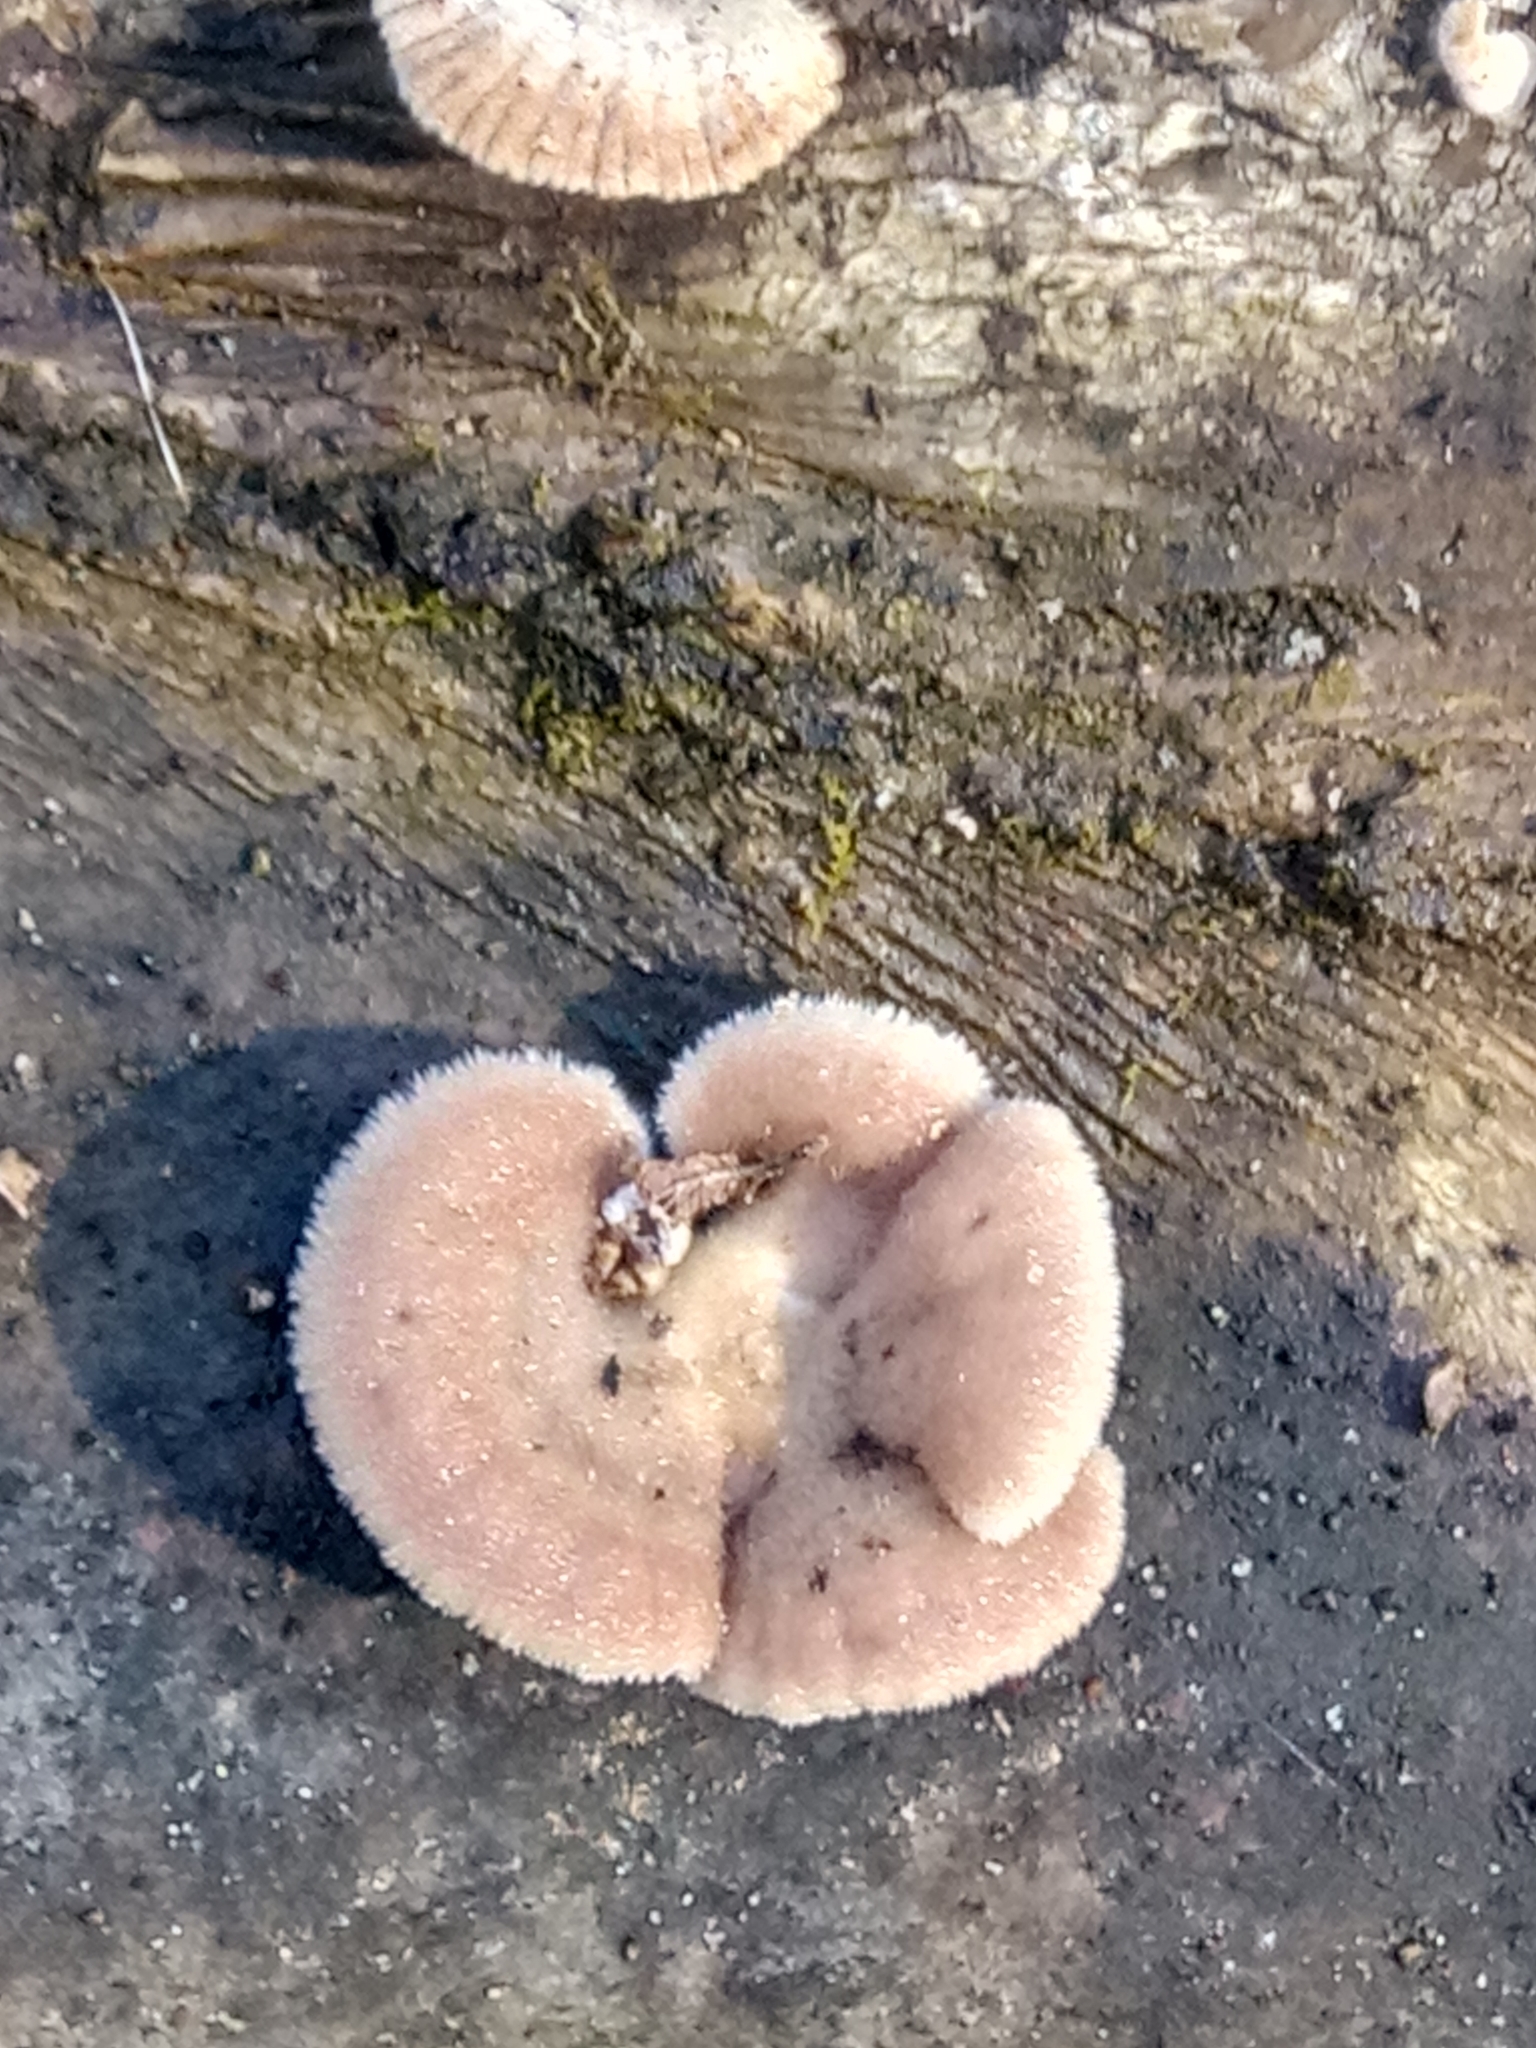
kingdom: Fungi
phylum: Basidiomycota
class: Agaricomycetes
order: Agaricales
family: Schizophyllaceae
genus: Schizophyllum
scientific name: Schizophyllum commune
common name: Common porecrust
